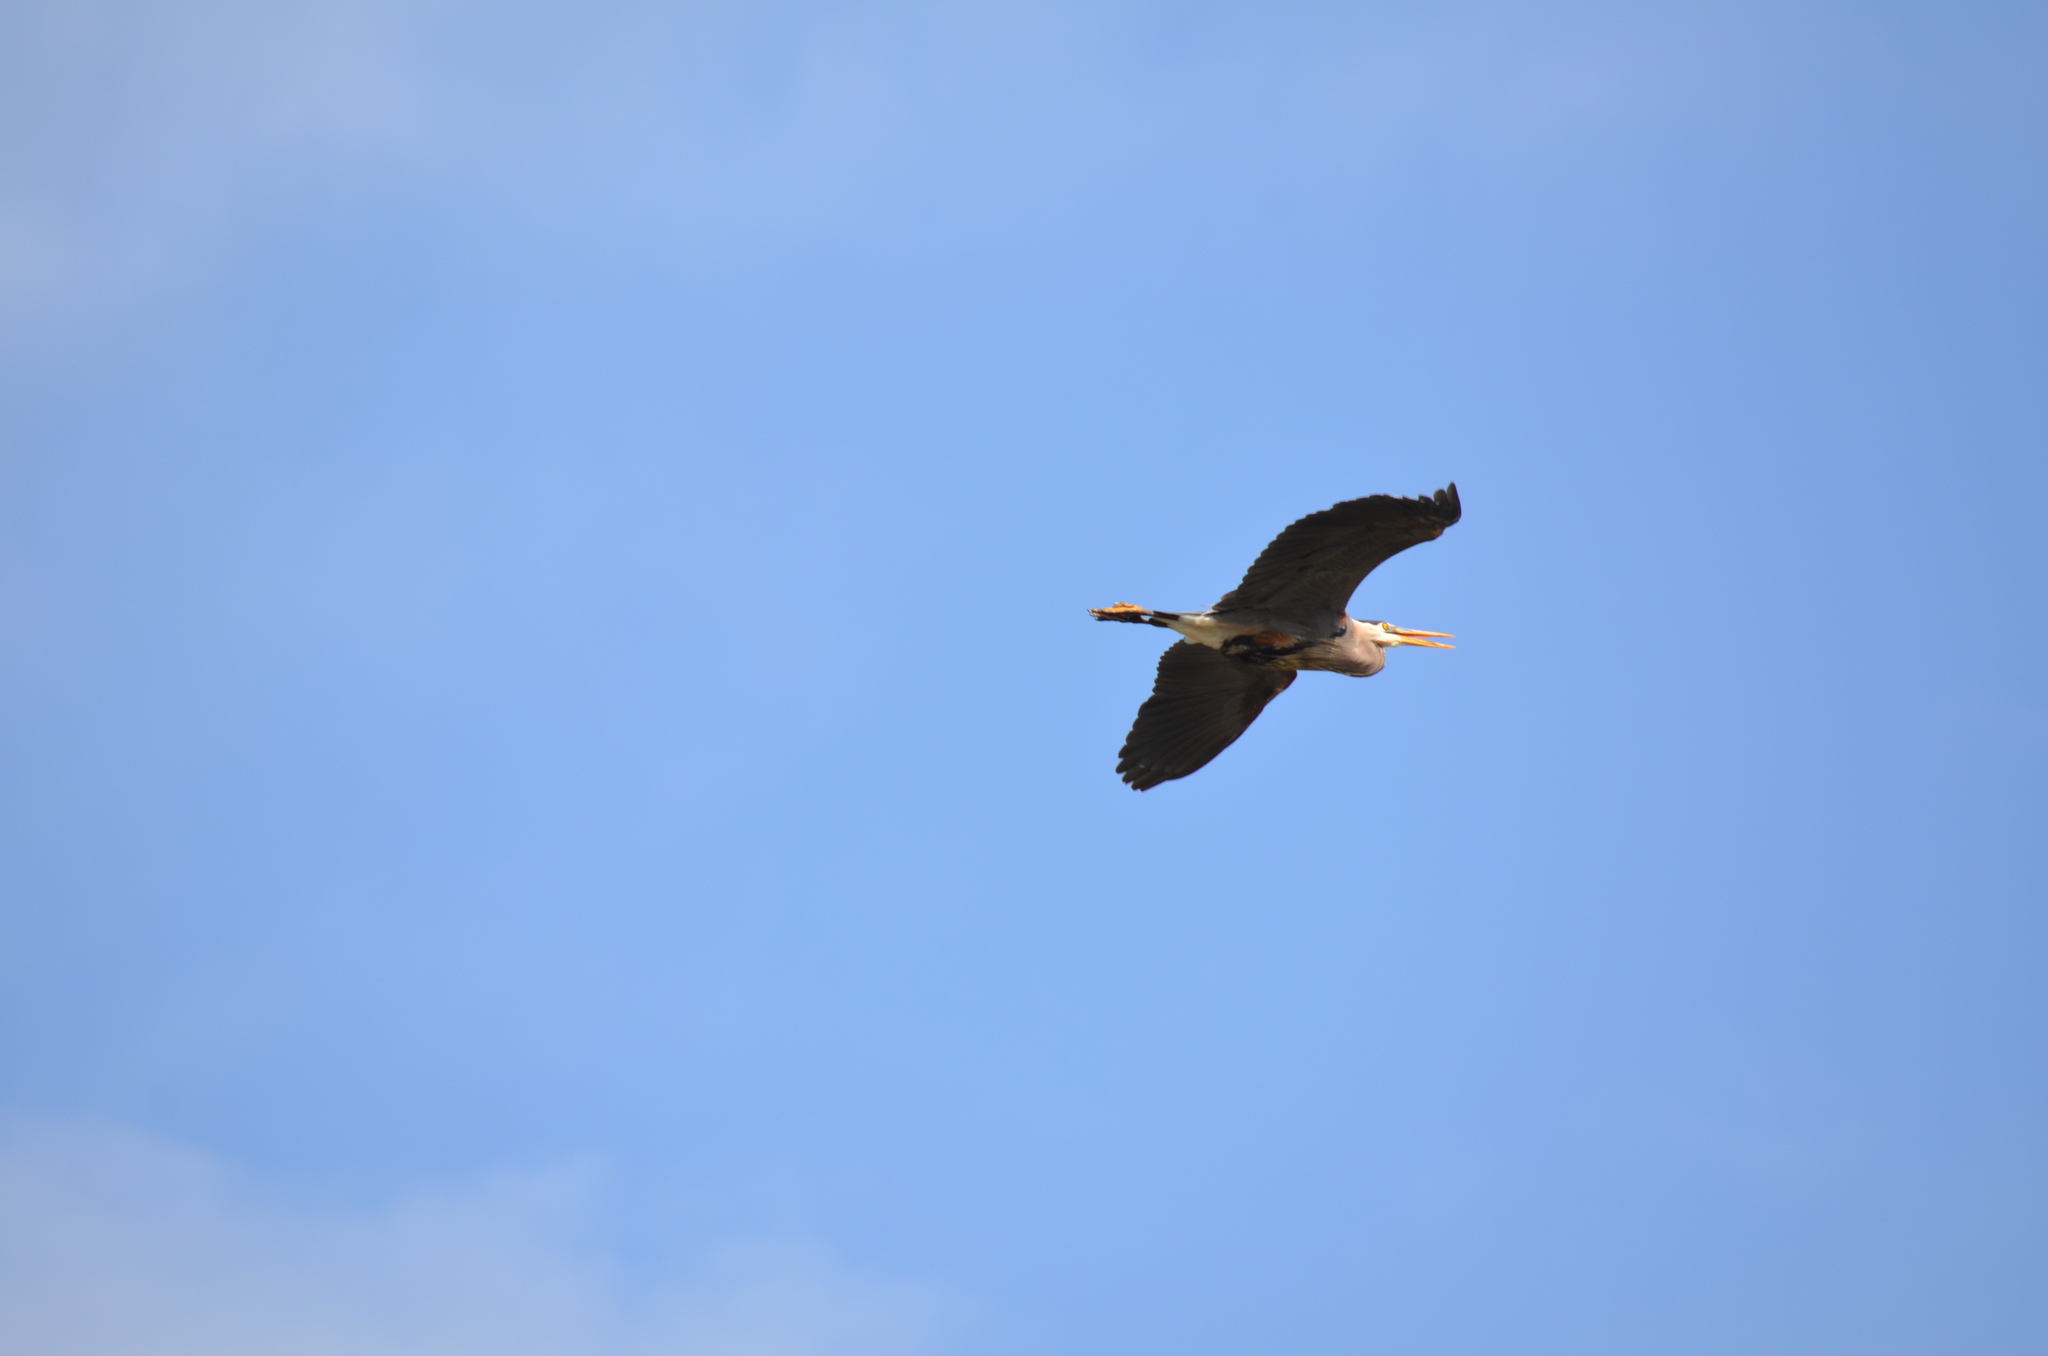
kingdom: Animalia
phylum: Chordata
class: Aves
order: Pelecaniformes
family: Ardeidae
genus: Ardea
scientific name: Ardea herodias
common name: Great blue heron
